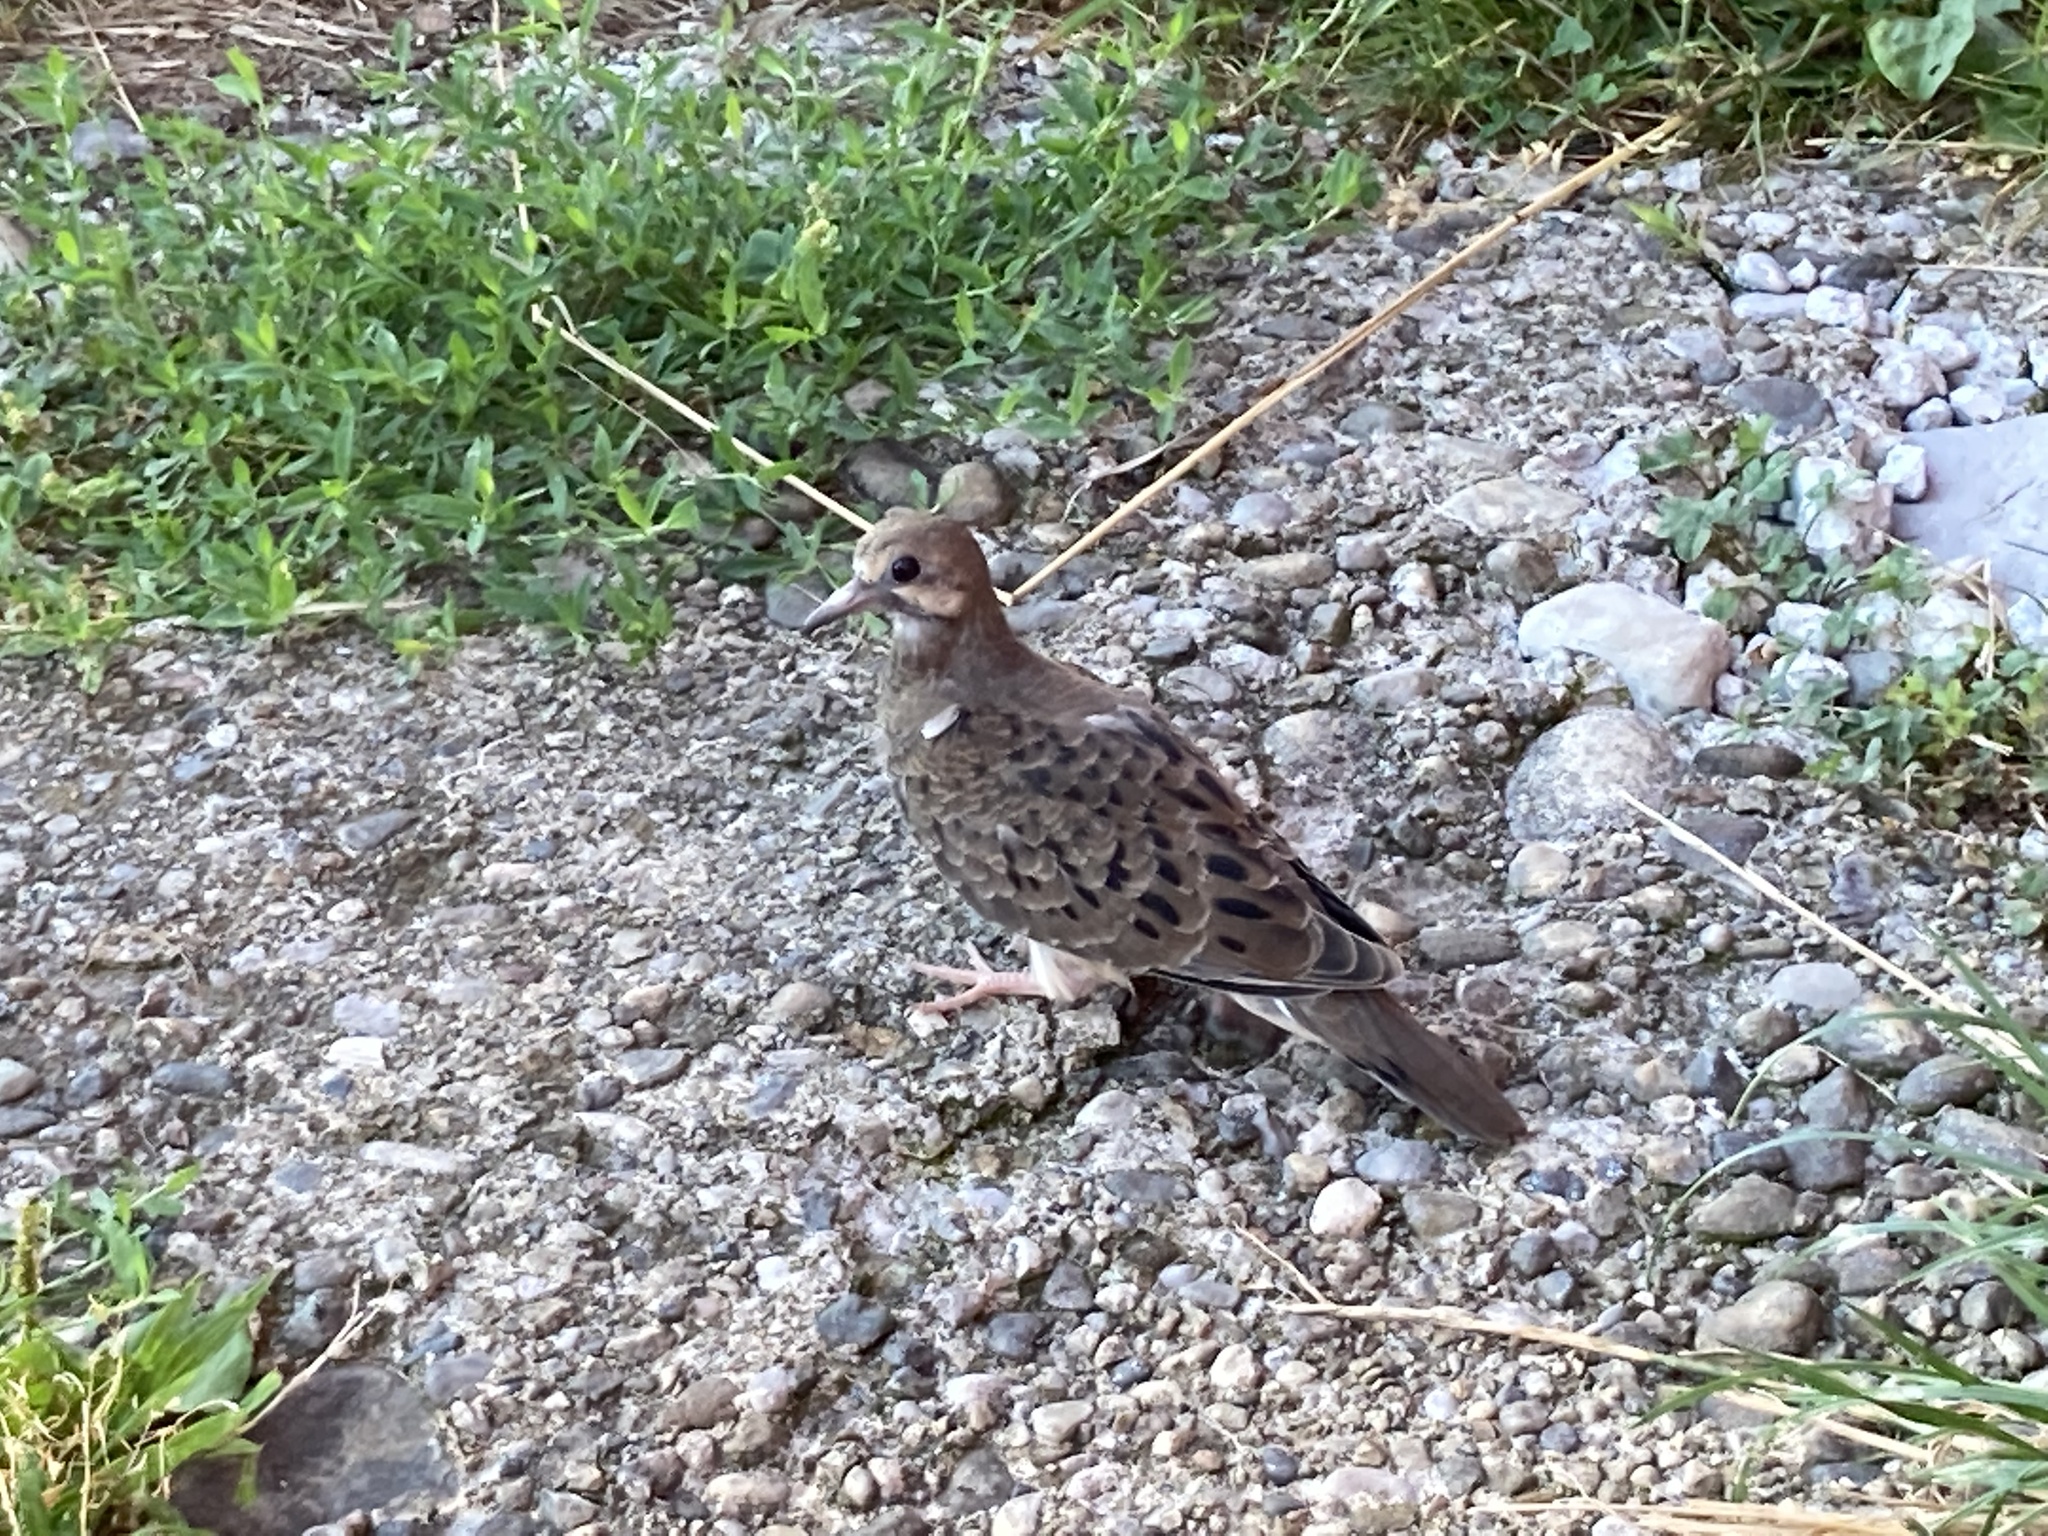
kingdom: Animalia
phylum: Chordata
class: Aves
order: Columbiformes
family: Columbidae
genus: Zenaida
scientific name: Zenaida macroura
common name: Mourning dove
